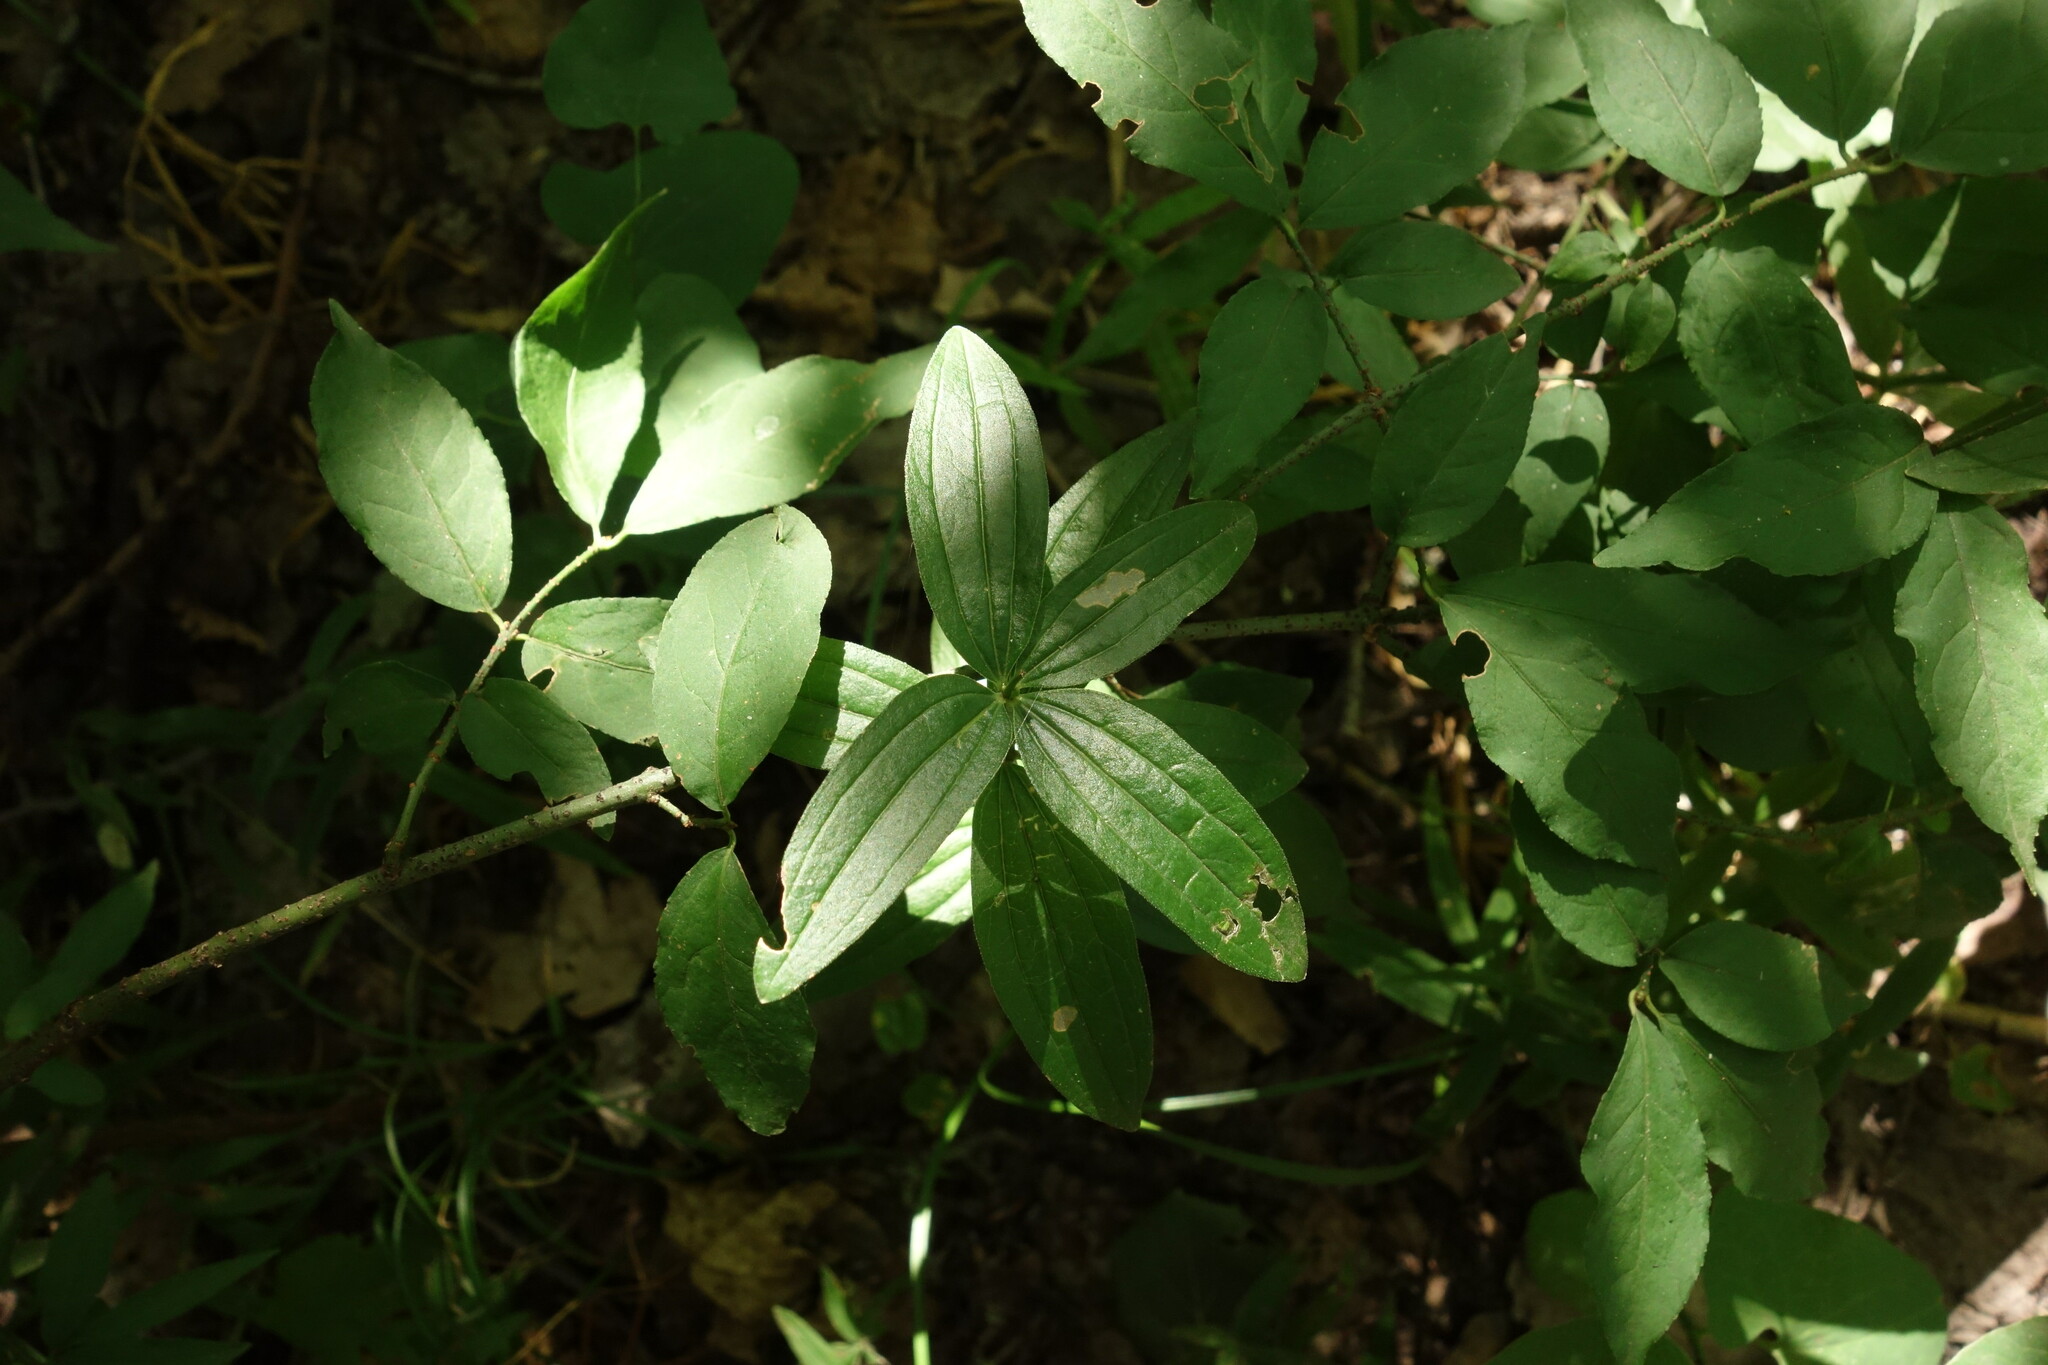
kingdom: Plantae
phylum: Tracheophyta
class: Magnoliopsida
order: Gentianales
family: Rubiaceae
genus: Galium
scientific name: Galium rubioides
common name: European bedstraw
